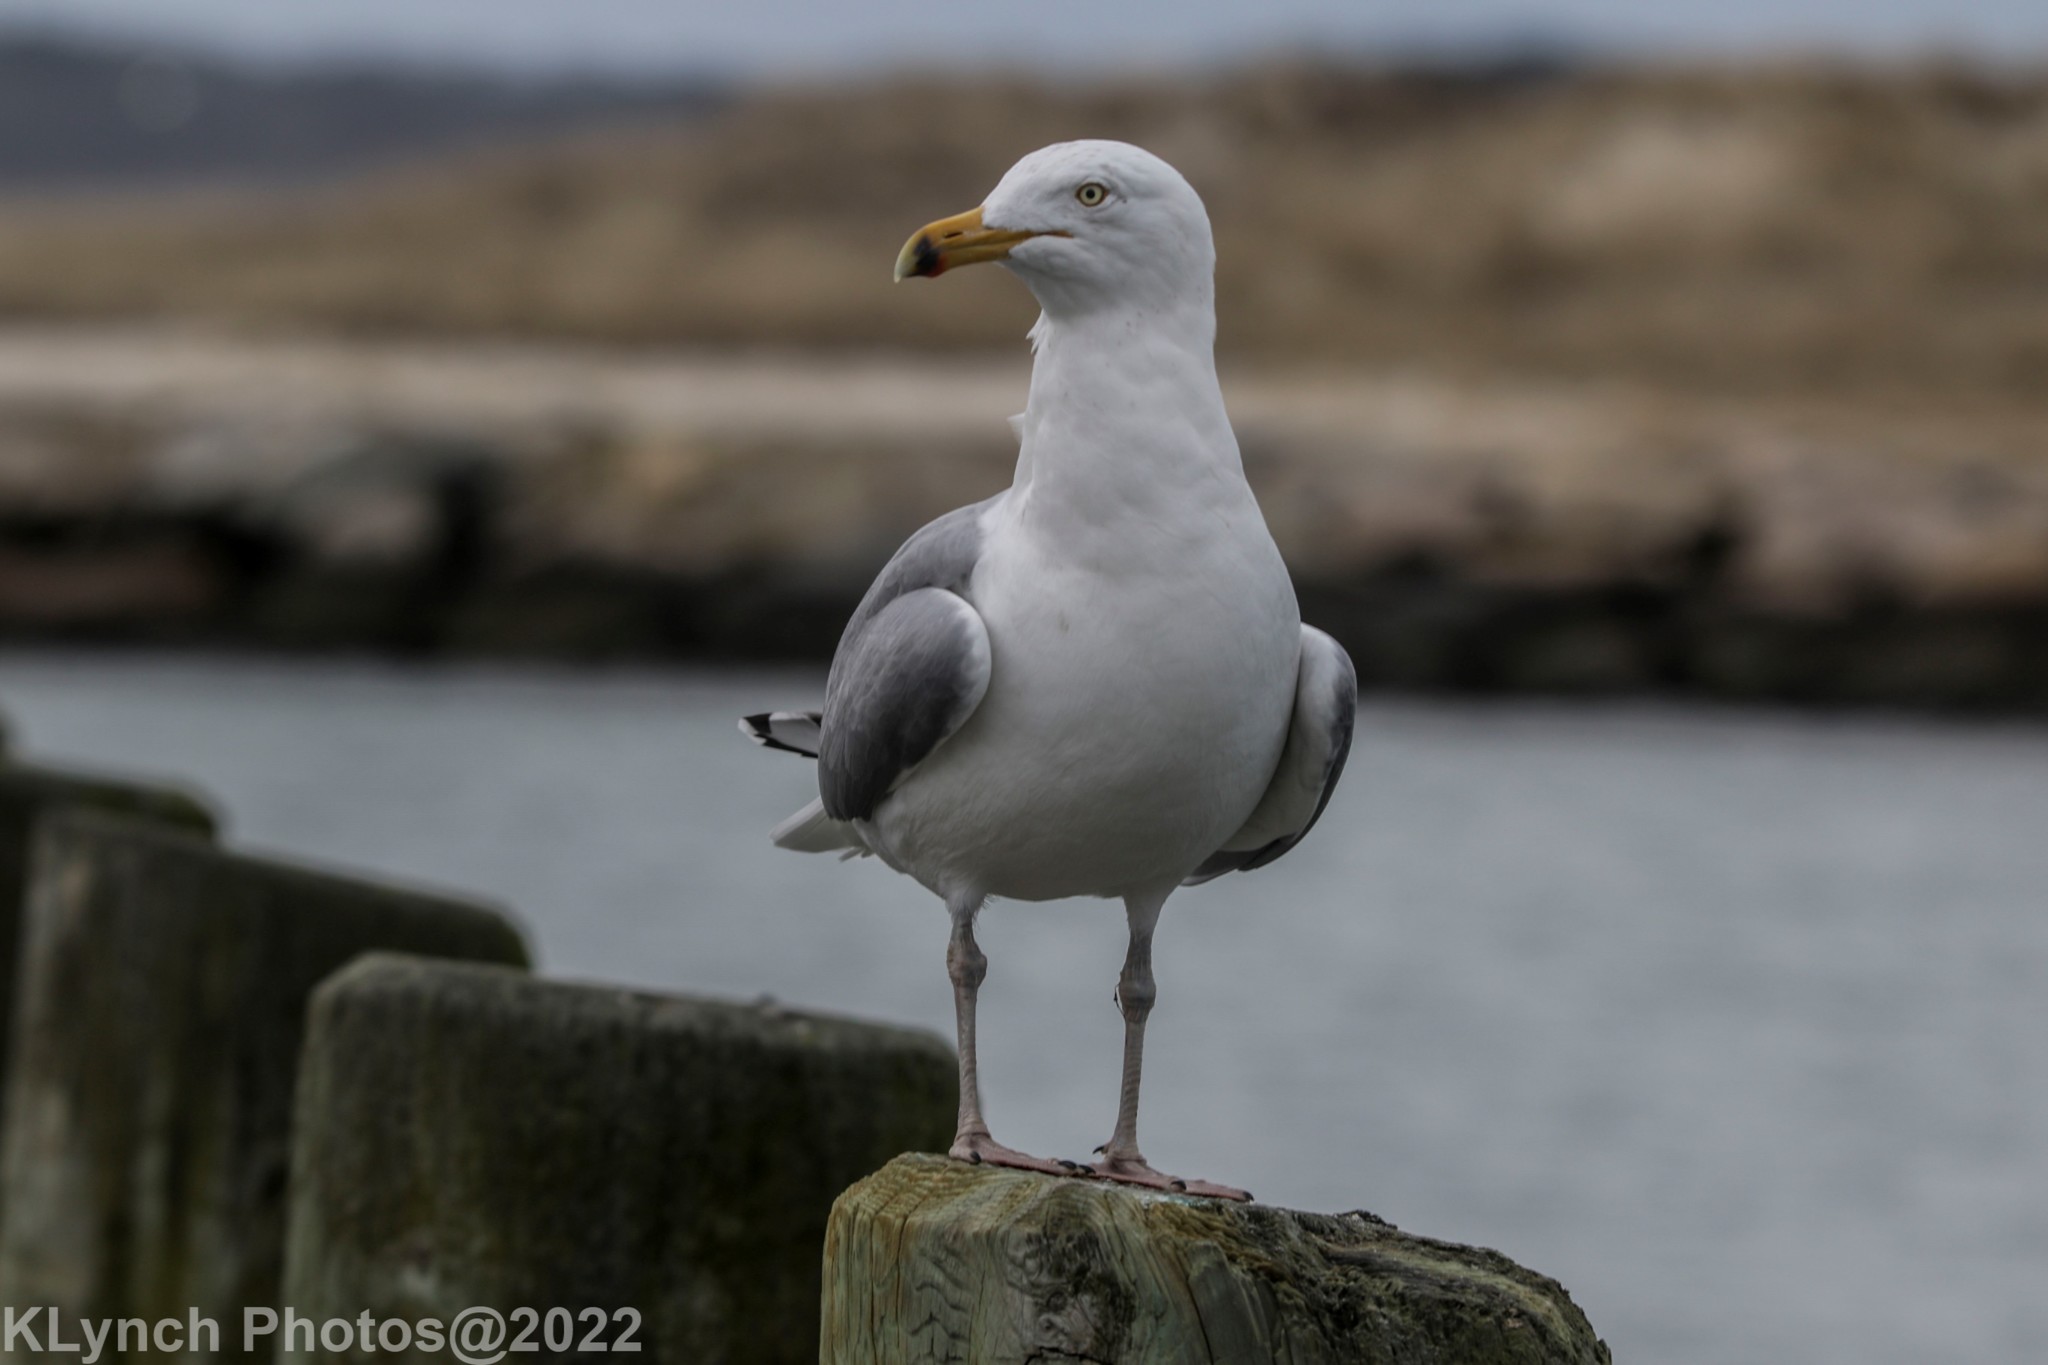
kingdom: Animalia
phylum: Chordata
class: Aves
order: Charadriiformes
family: Laridae
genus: Larus
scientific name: Larus argentatus
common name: Herring gull
